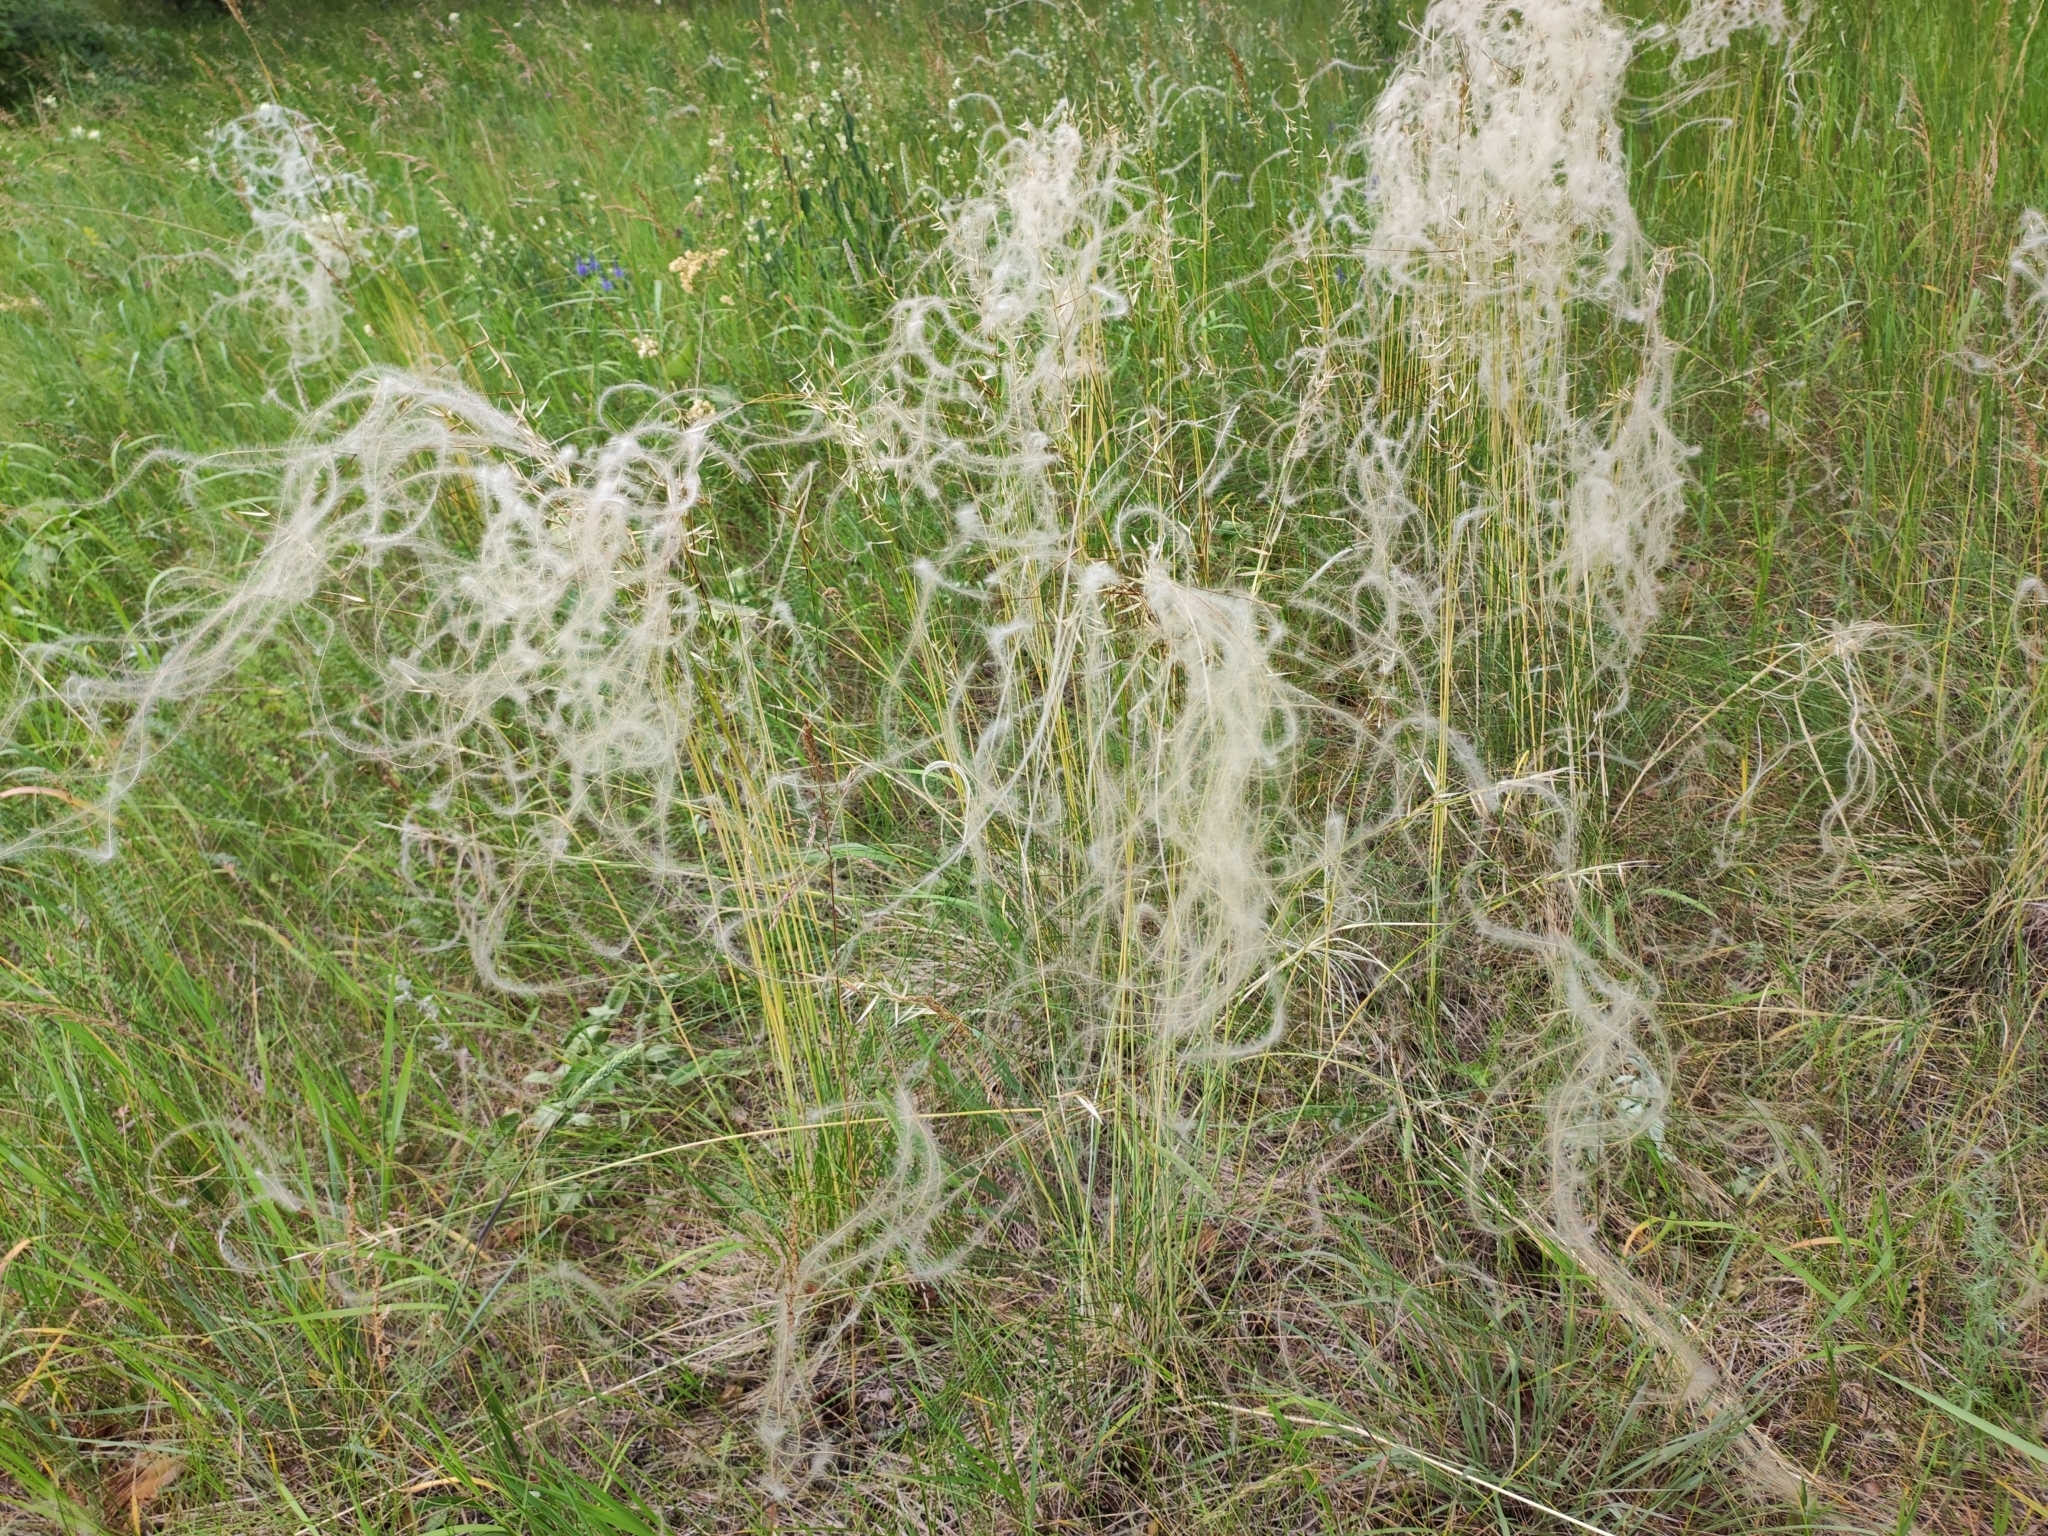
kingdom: Plantae
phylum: Tracheophyta
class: Liliopsida
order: Poales
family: Poaceae
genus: Stipa
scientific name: Stipa pennata
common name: European feather grass
